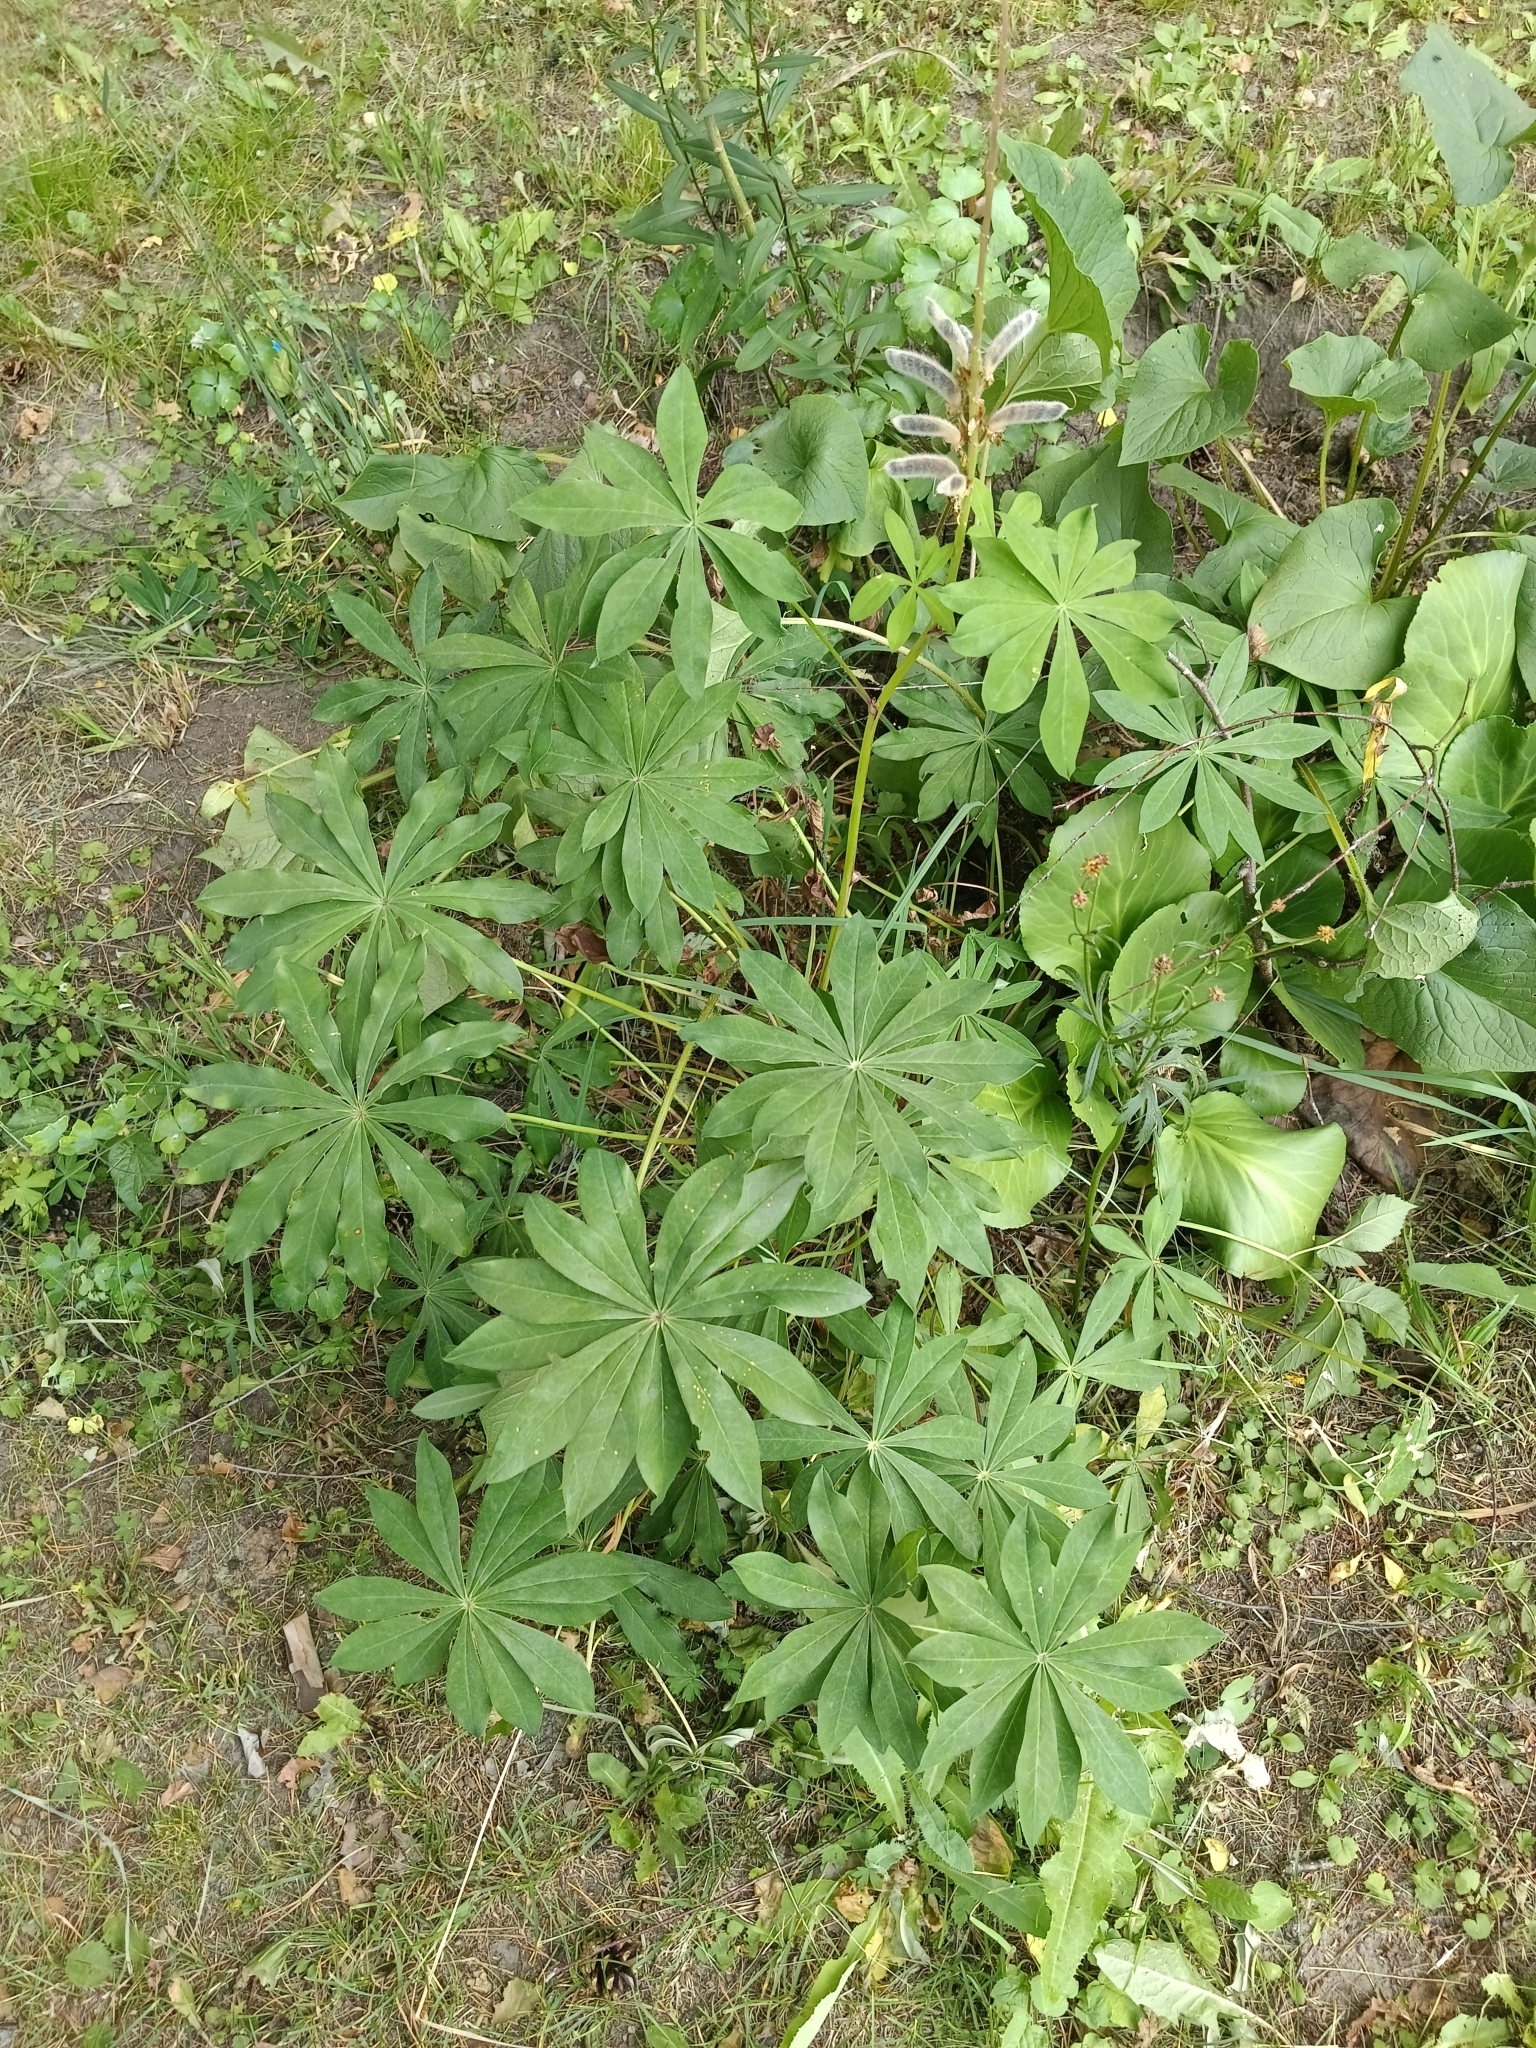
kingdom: Plantae
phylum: Tracheophyta
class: Magnoliopsida
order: Fabales
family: Fabaceae
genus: Lupinus
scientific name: Lupinus polyphyllus
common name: Garden lupin
